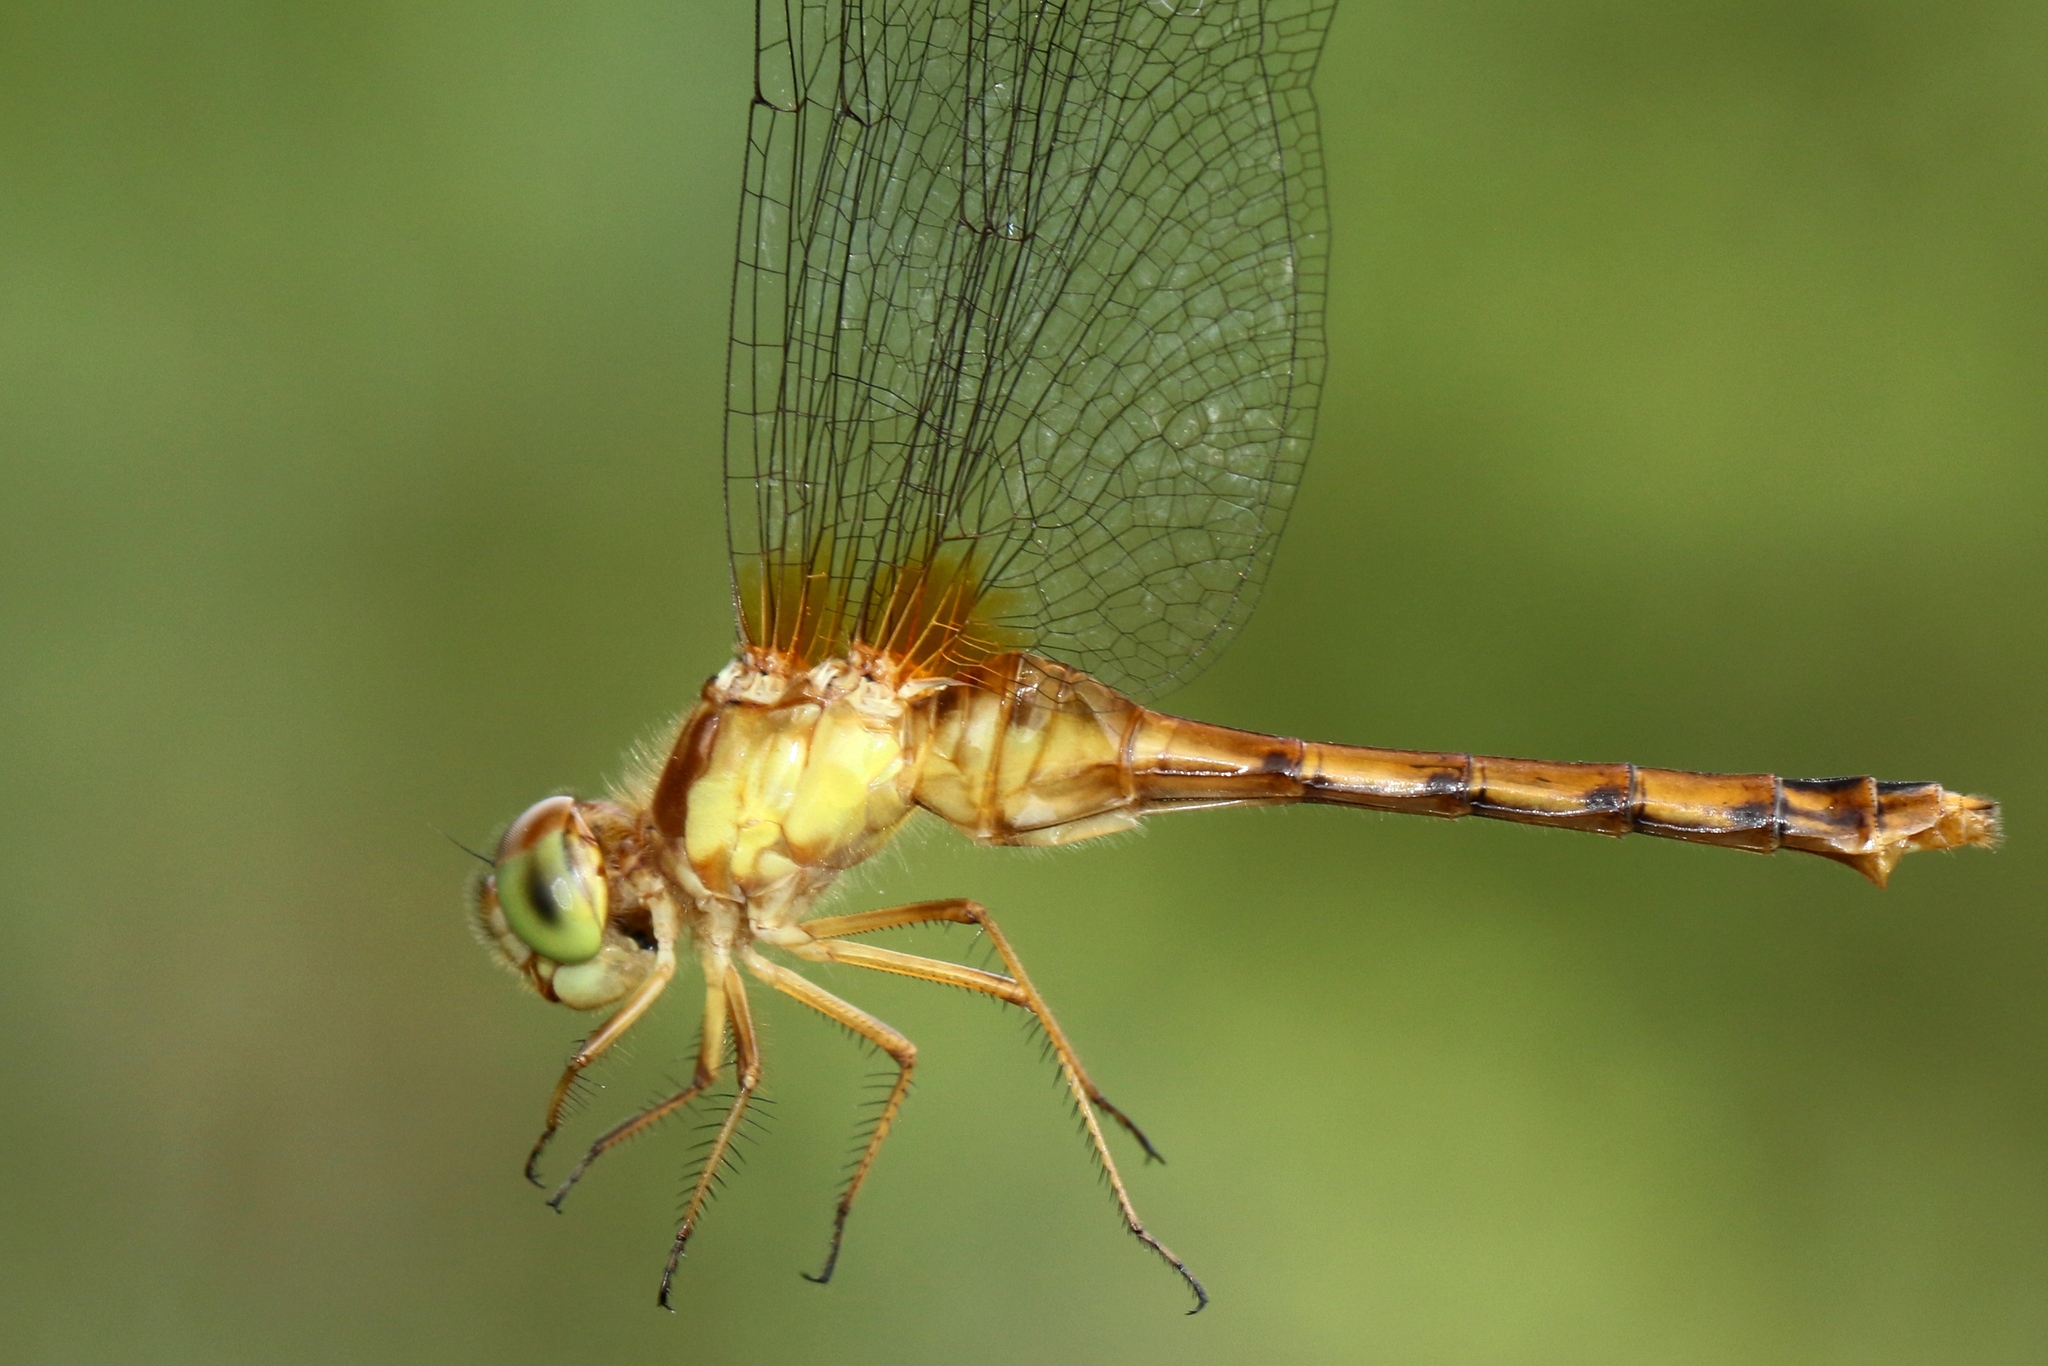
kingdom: Animalia
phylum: Arthropoda
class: Insecta
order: Odonata
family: Libellulidae
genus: Sympetrum
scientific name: Sympetrum vicinum
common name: Autumn meadowhawk
